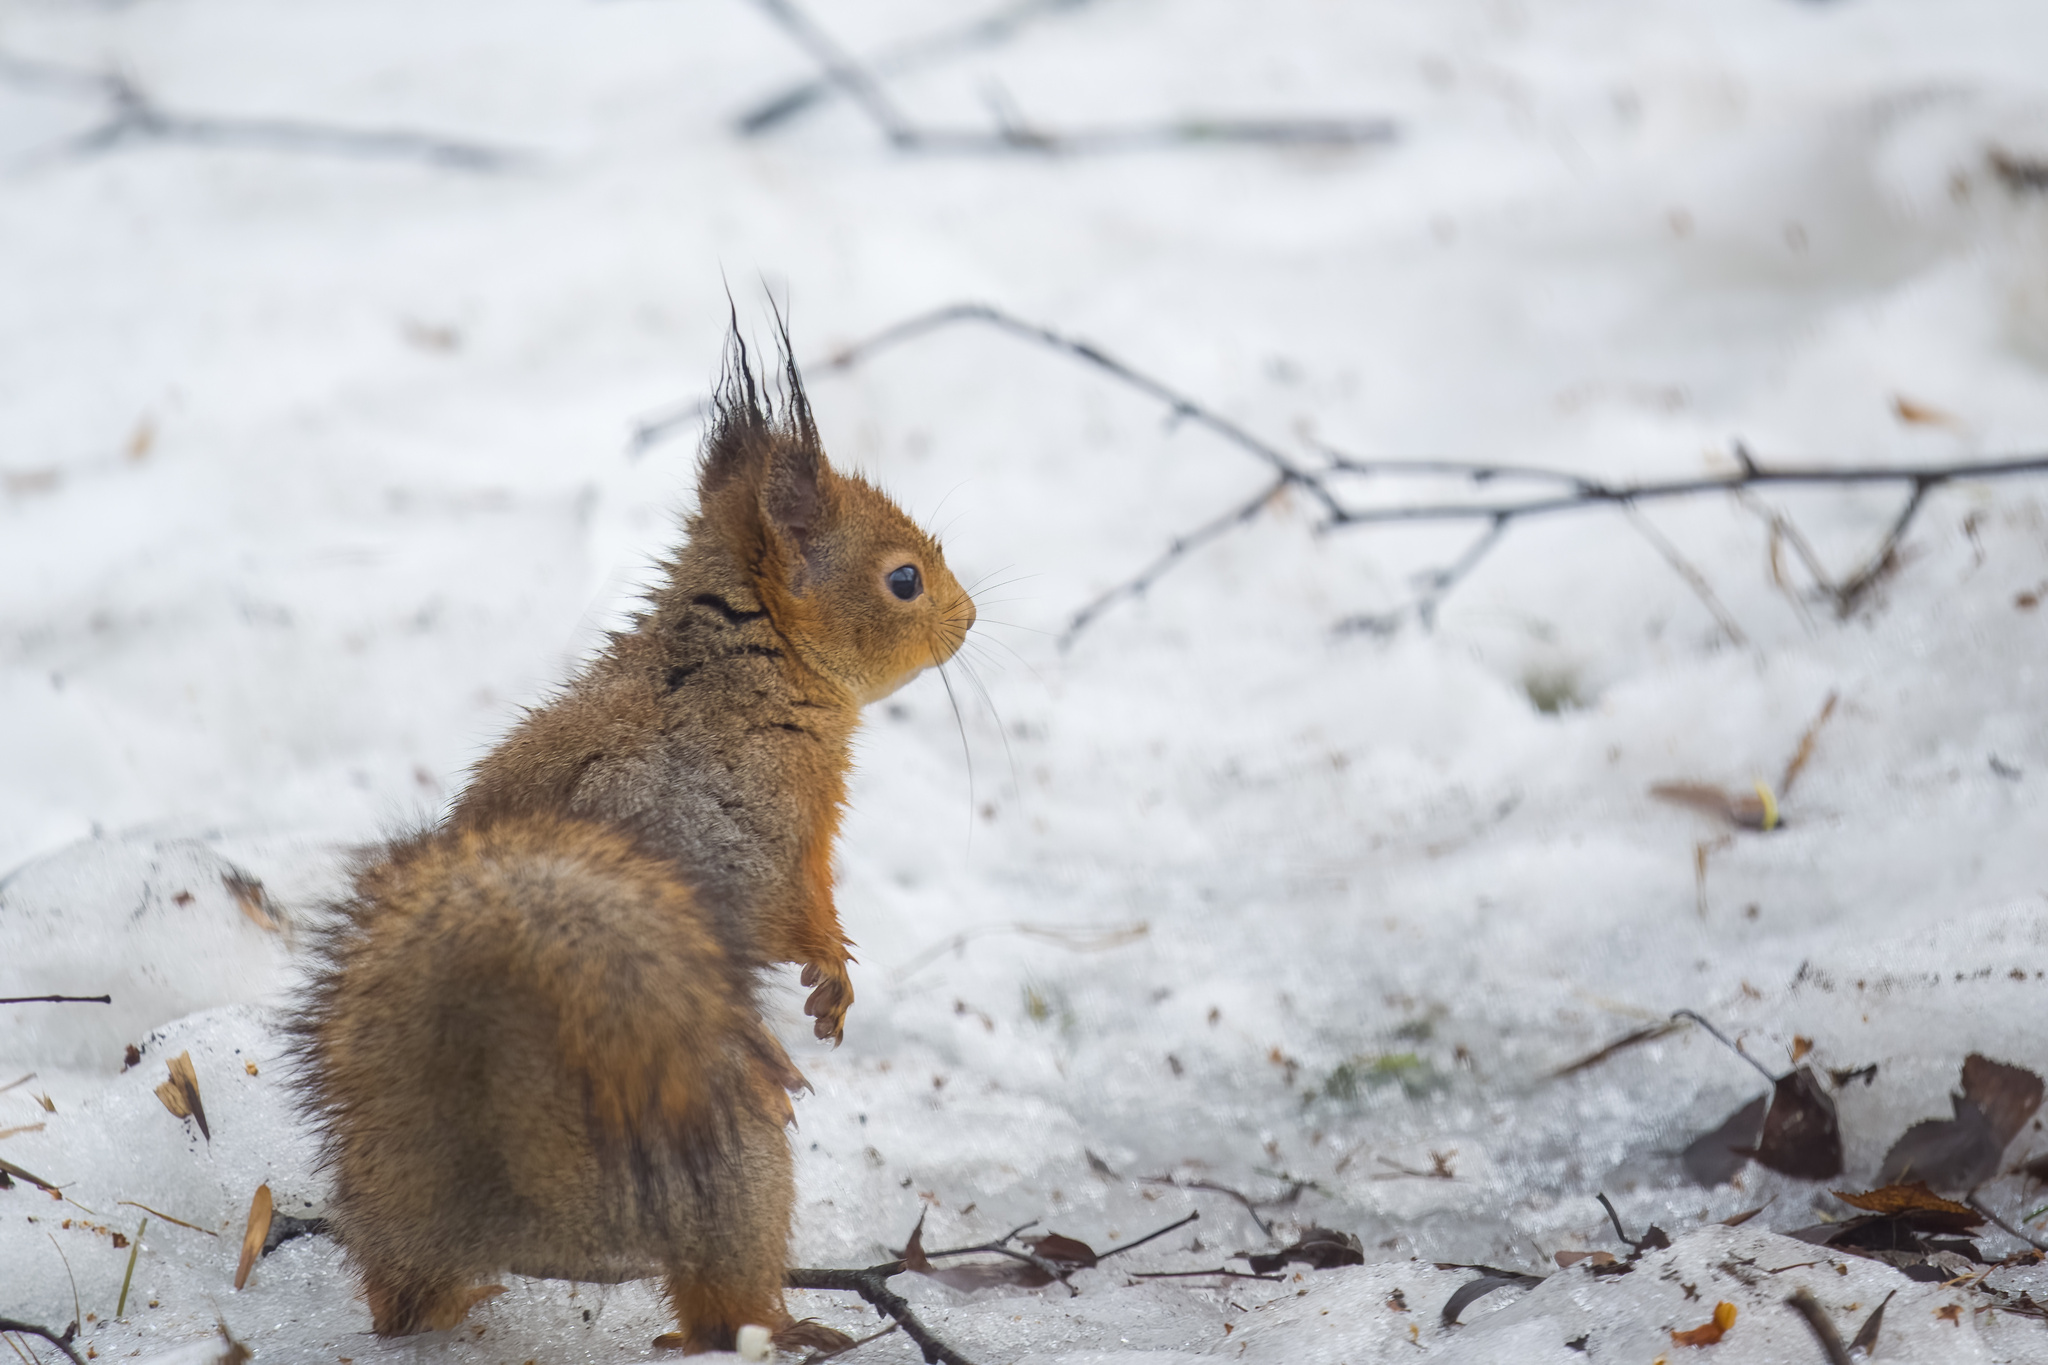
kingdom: Animalia
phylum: Chordata
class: Mammalia
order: Rodentia
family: Sciuridae
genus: Sciurus
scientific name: Sciurus vulgaris
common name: Eurasian red squirrel
